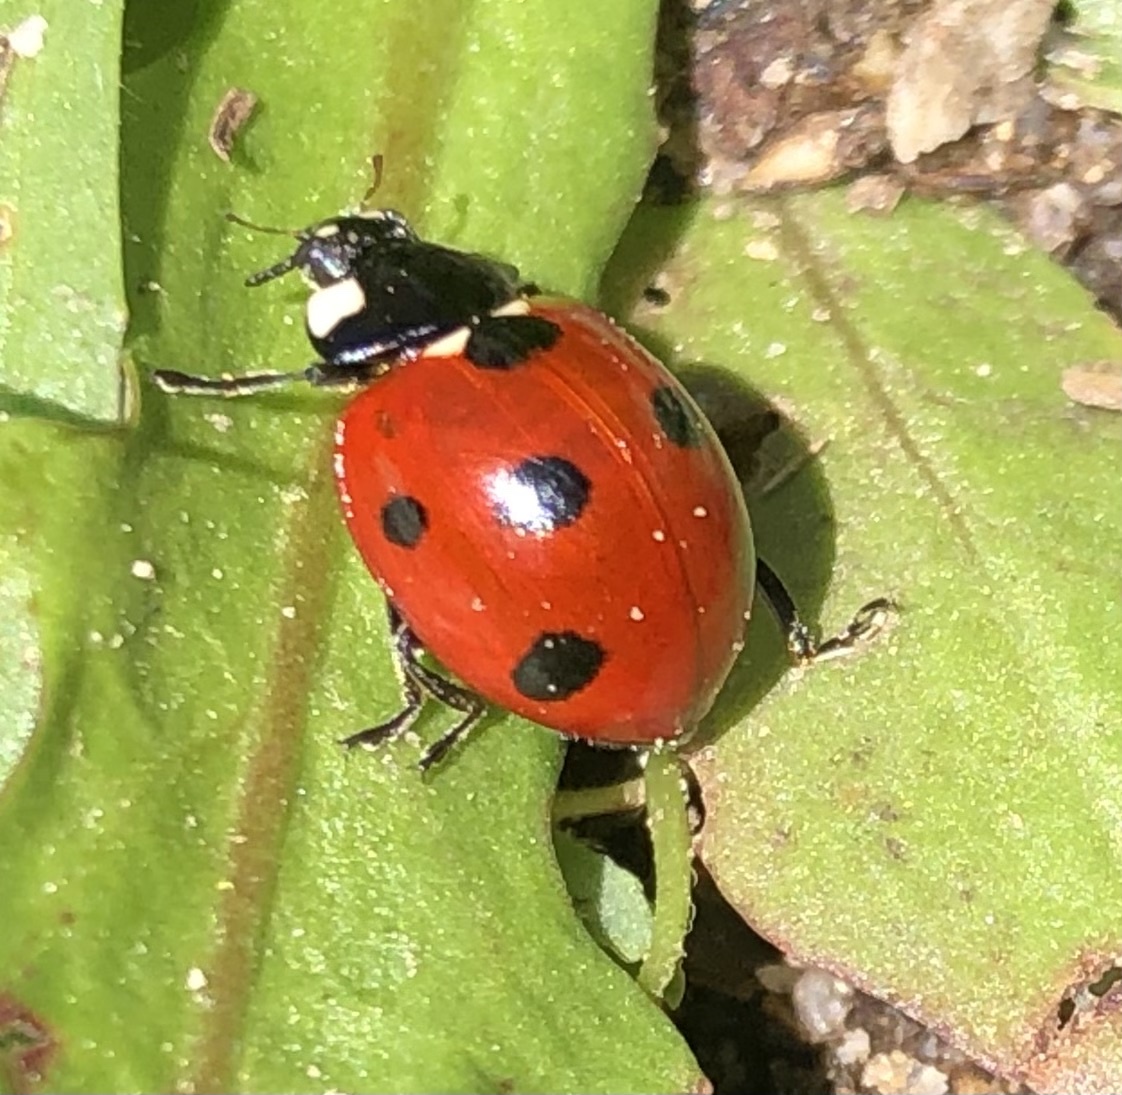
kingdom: Animalia
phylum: Arthropoda
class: Insecta
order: Coleoptera
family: Coccinellidae
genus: Coccinella
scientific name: Coccinella septempunctata
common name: Sevenspotted lady beetle
